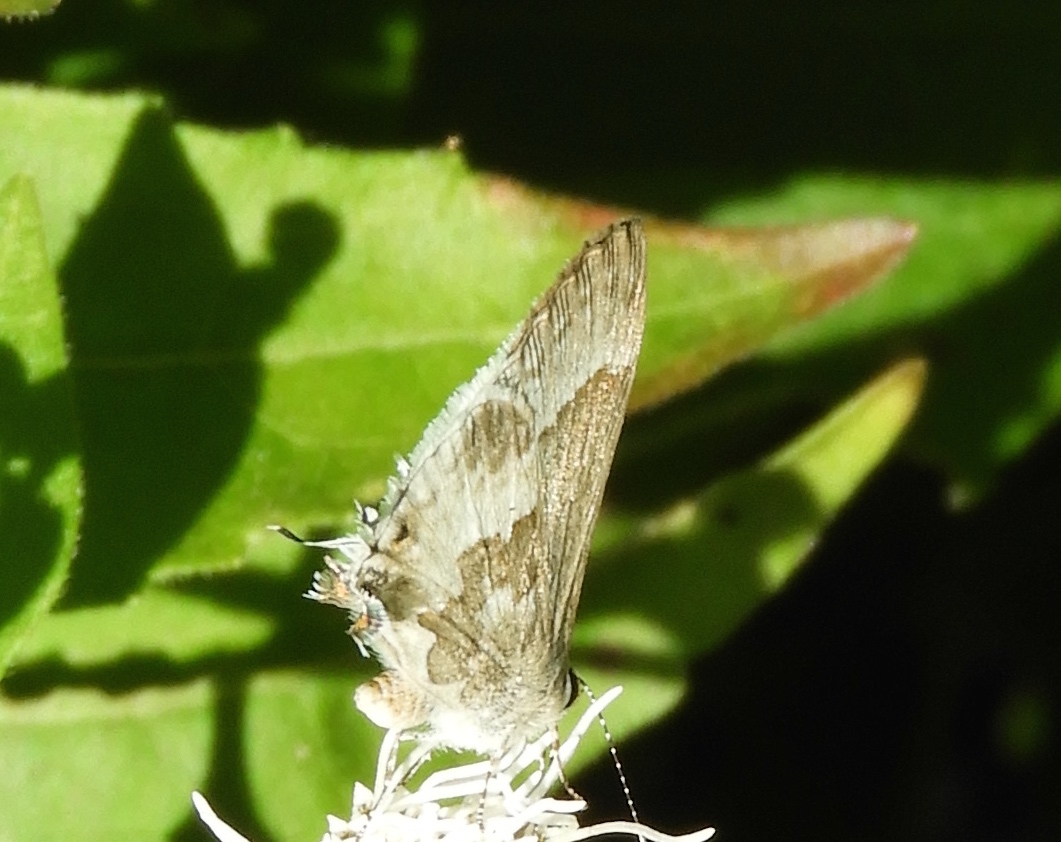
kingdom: Animalia
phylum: Arthropoda
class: Insecta
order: Lepidoptera
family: Lycaenidae
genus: Strymon
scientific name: Strymon albata
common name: White scrub-hairstreak
